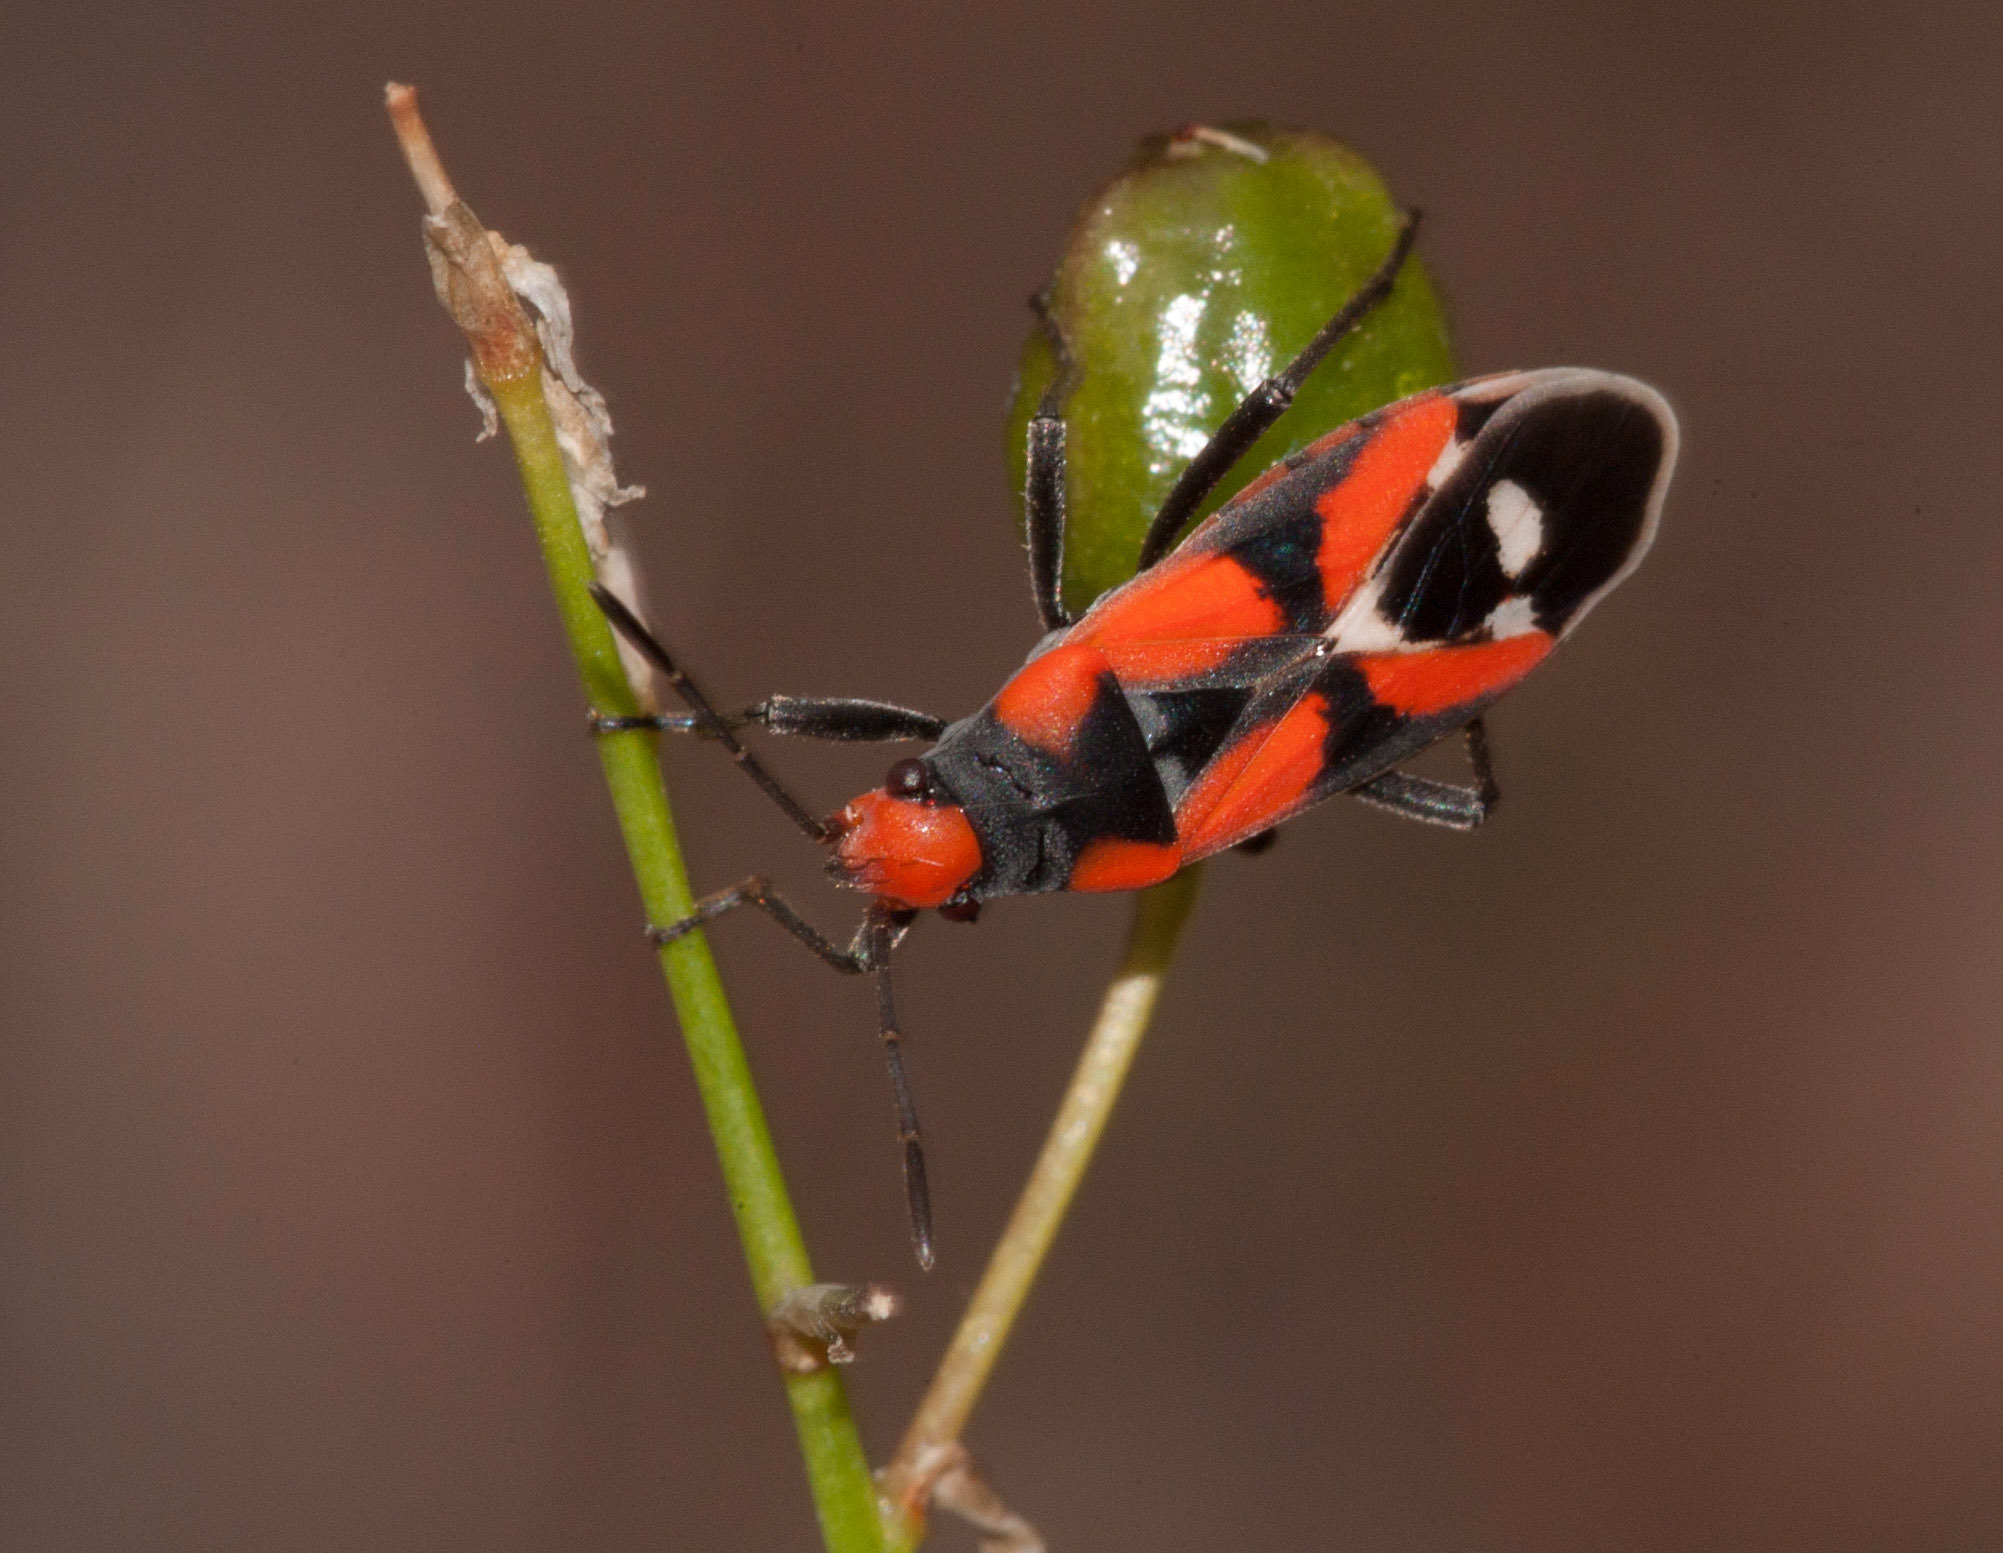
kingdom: Animalia
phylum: Arthropoda
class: Insecta
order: Hemiptera
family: Lygaeidae
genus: Melanerythrus
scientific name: Melanerythrus mactans
